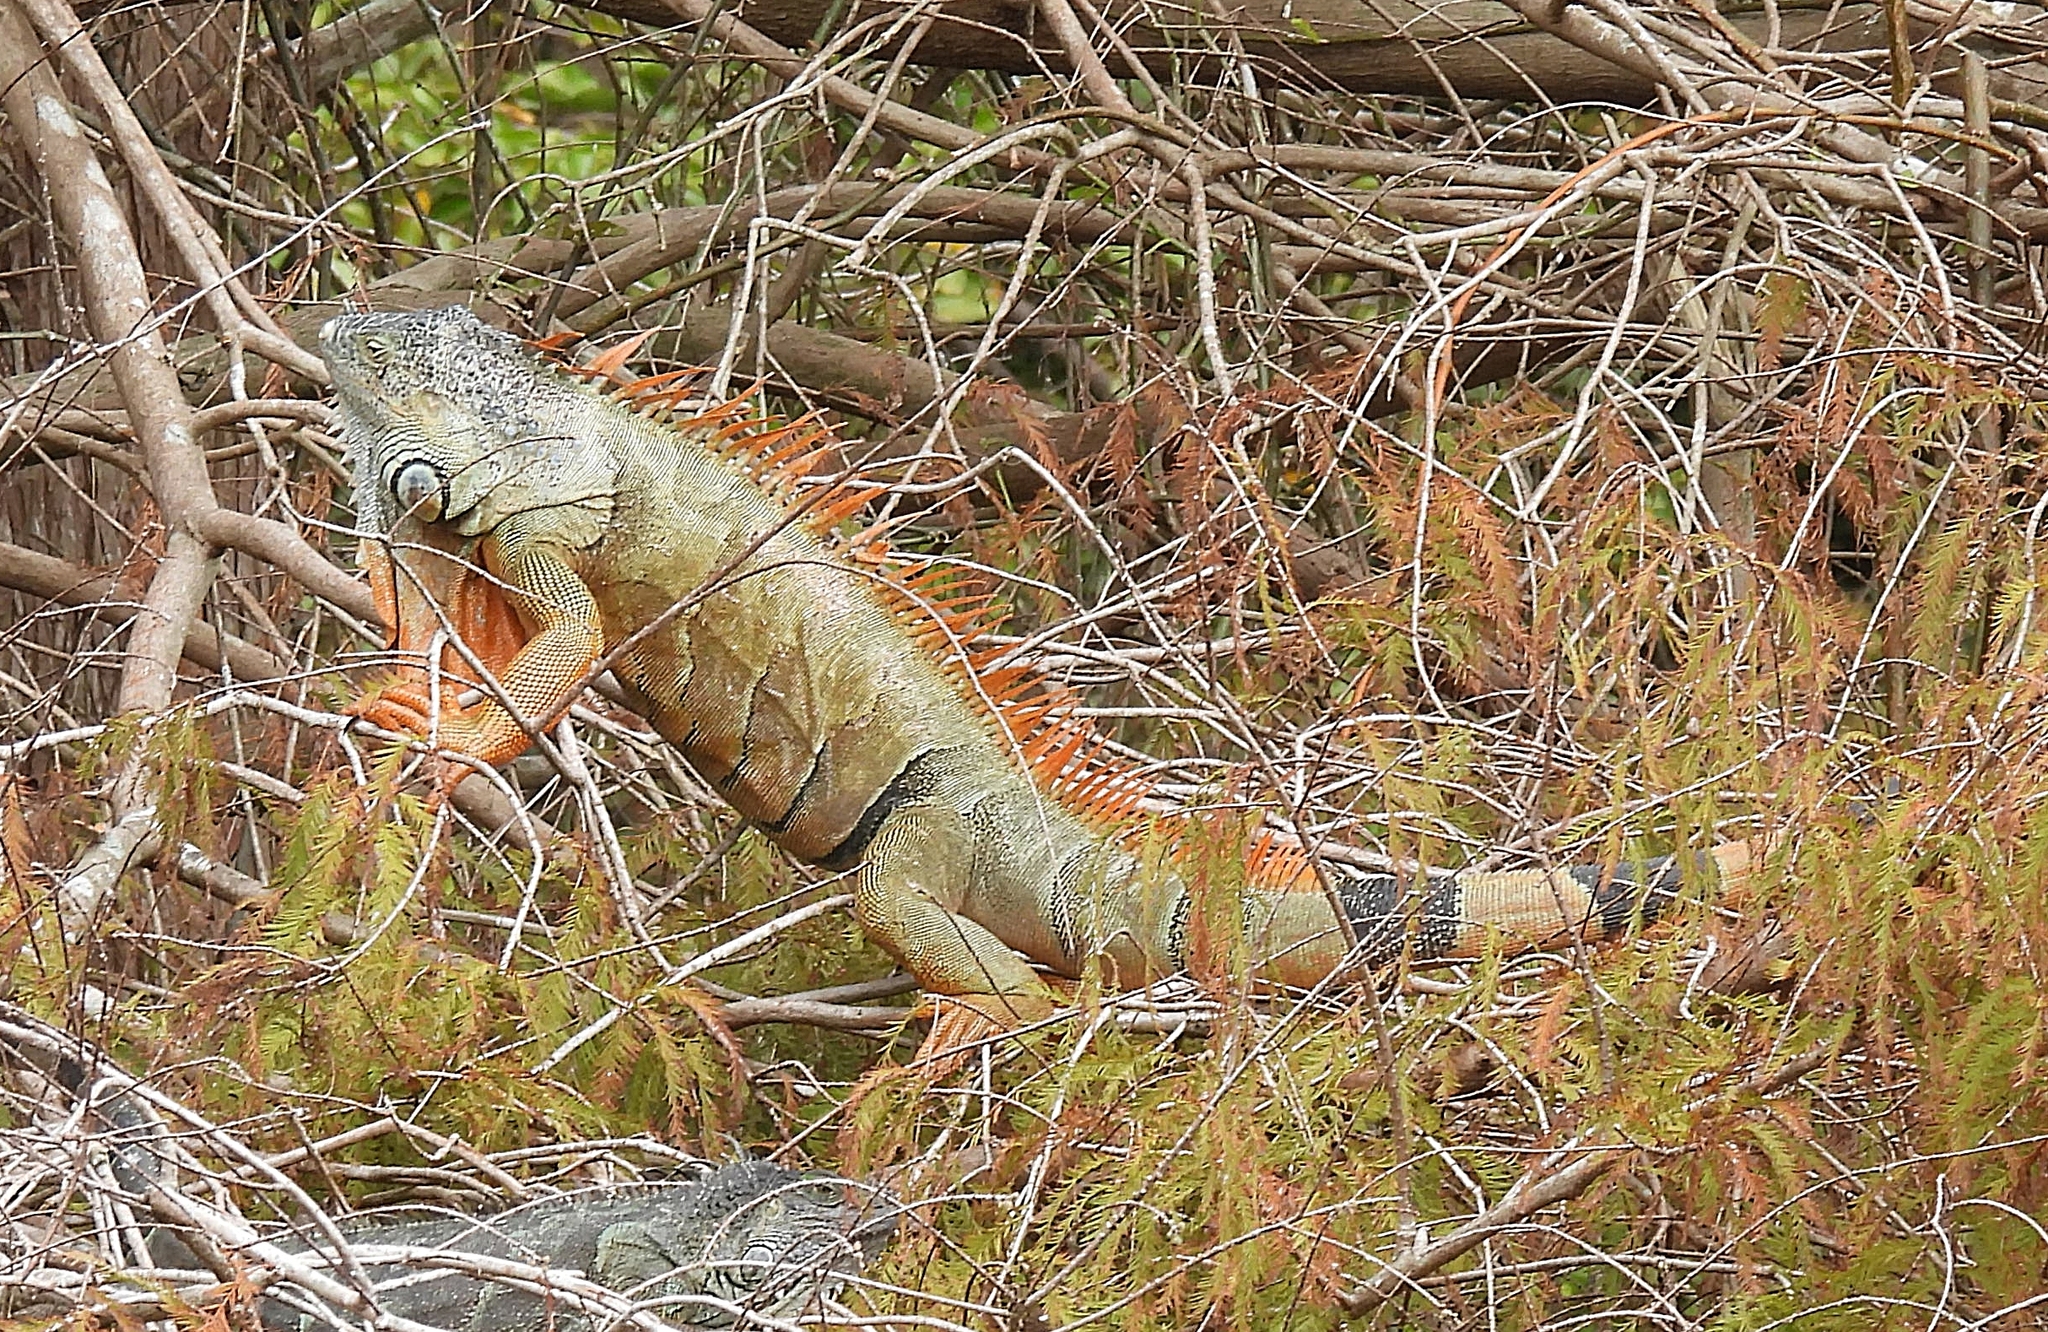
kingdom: Animalia
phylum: Chordata
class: Squamata
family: Iguanidae
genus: Iguana
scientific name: Iguana iguana
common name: Green iguana
